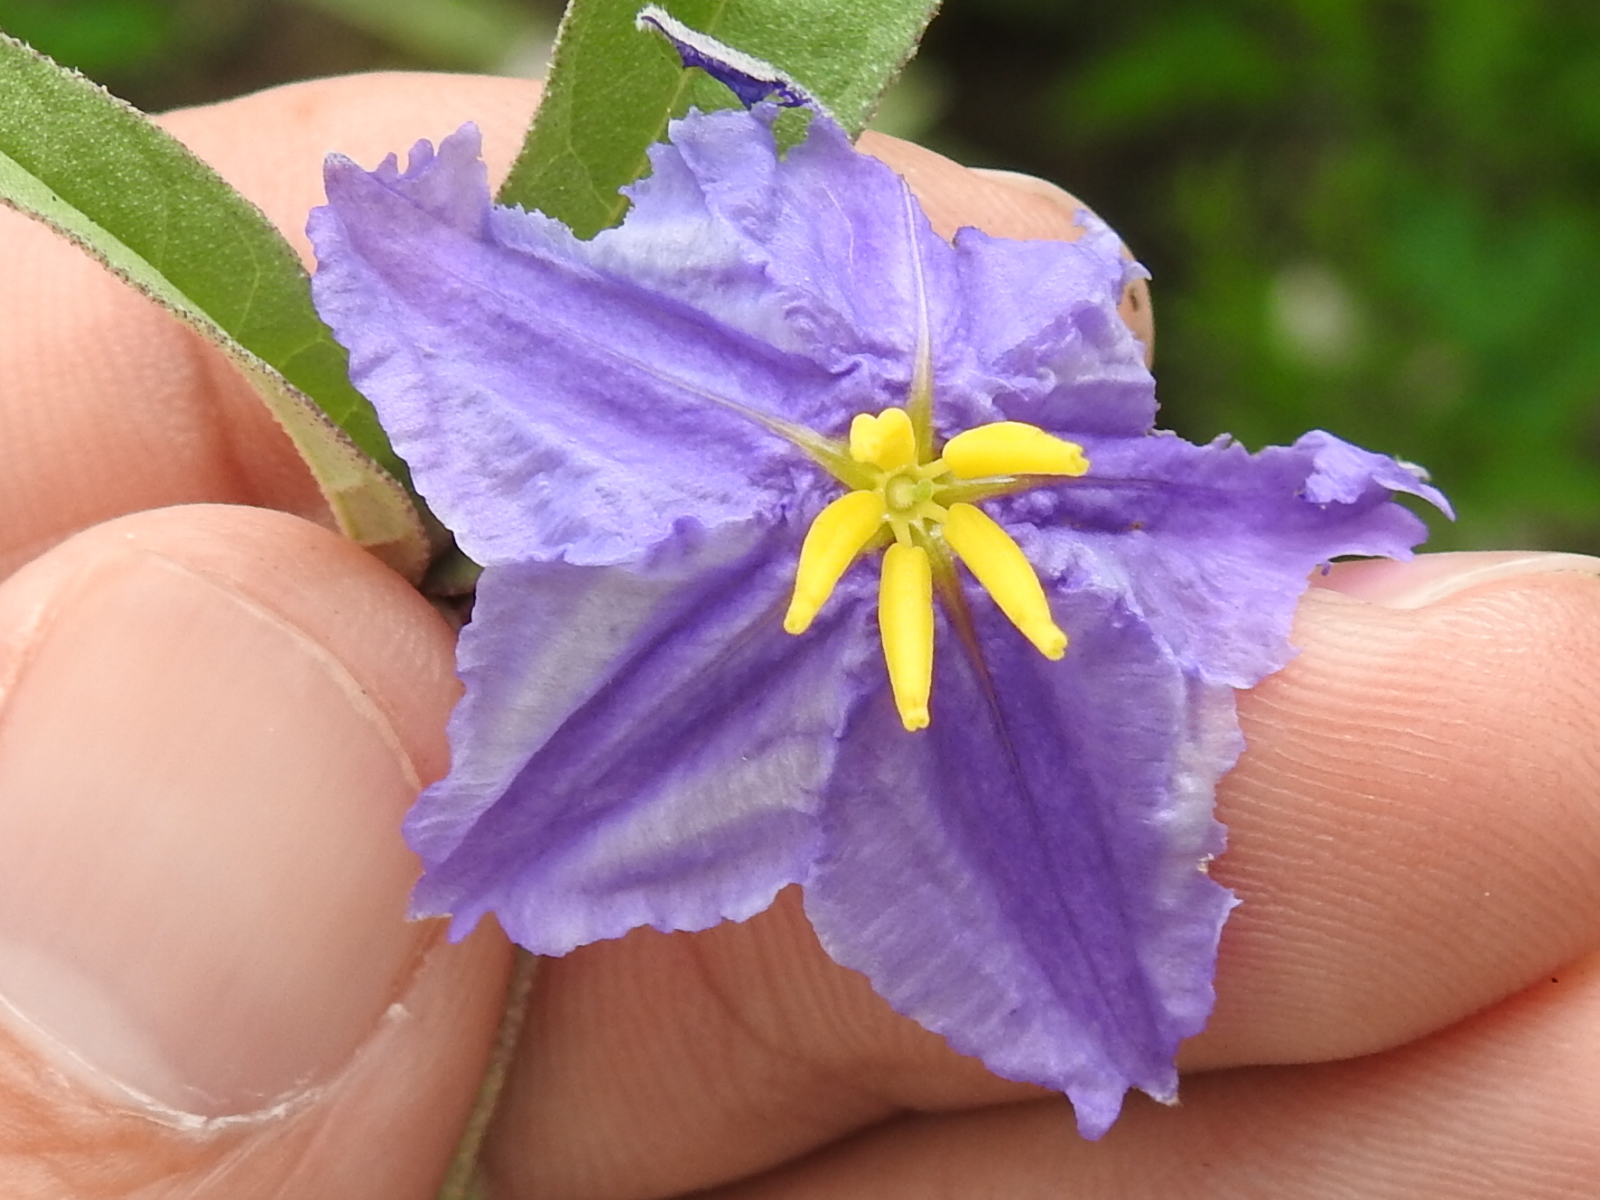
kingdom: Plantae
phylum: Tracheophyta
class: Magnoliopsida
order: Solanales
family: Solanaceae
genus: Solanum
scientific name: Solanum elaeagnifolium
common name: Silverleaf nightshade
